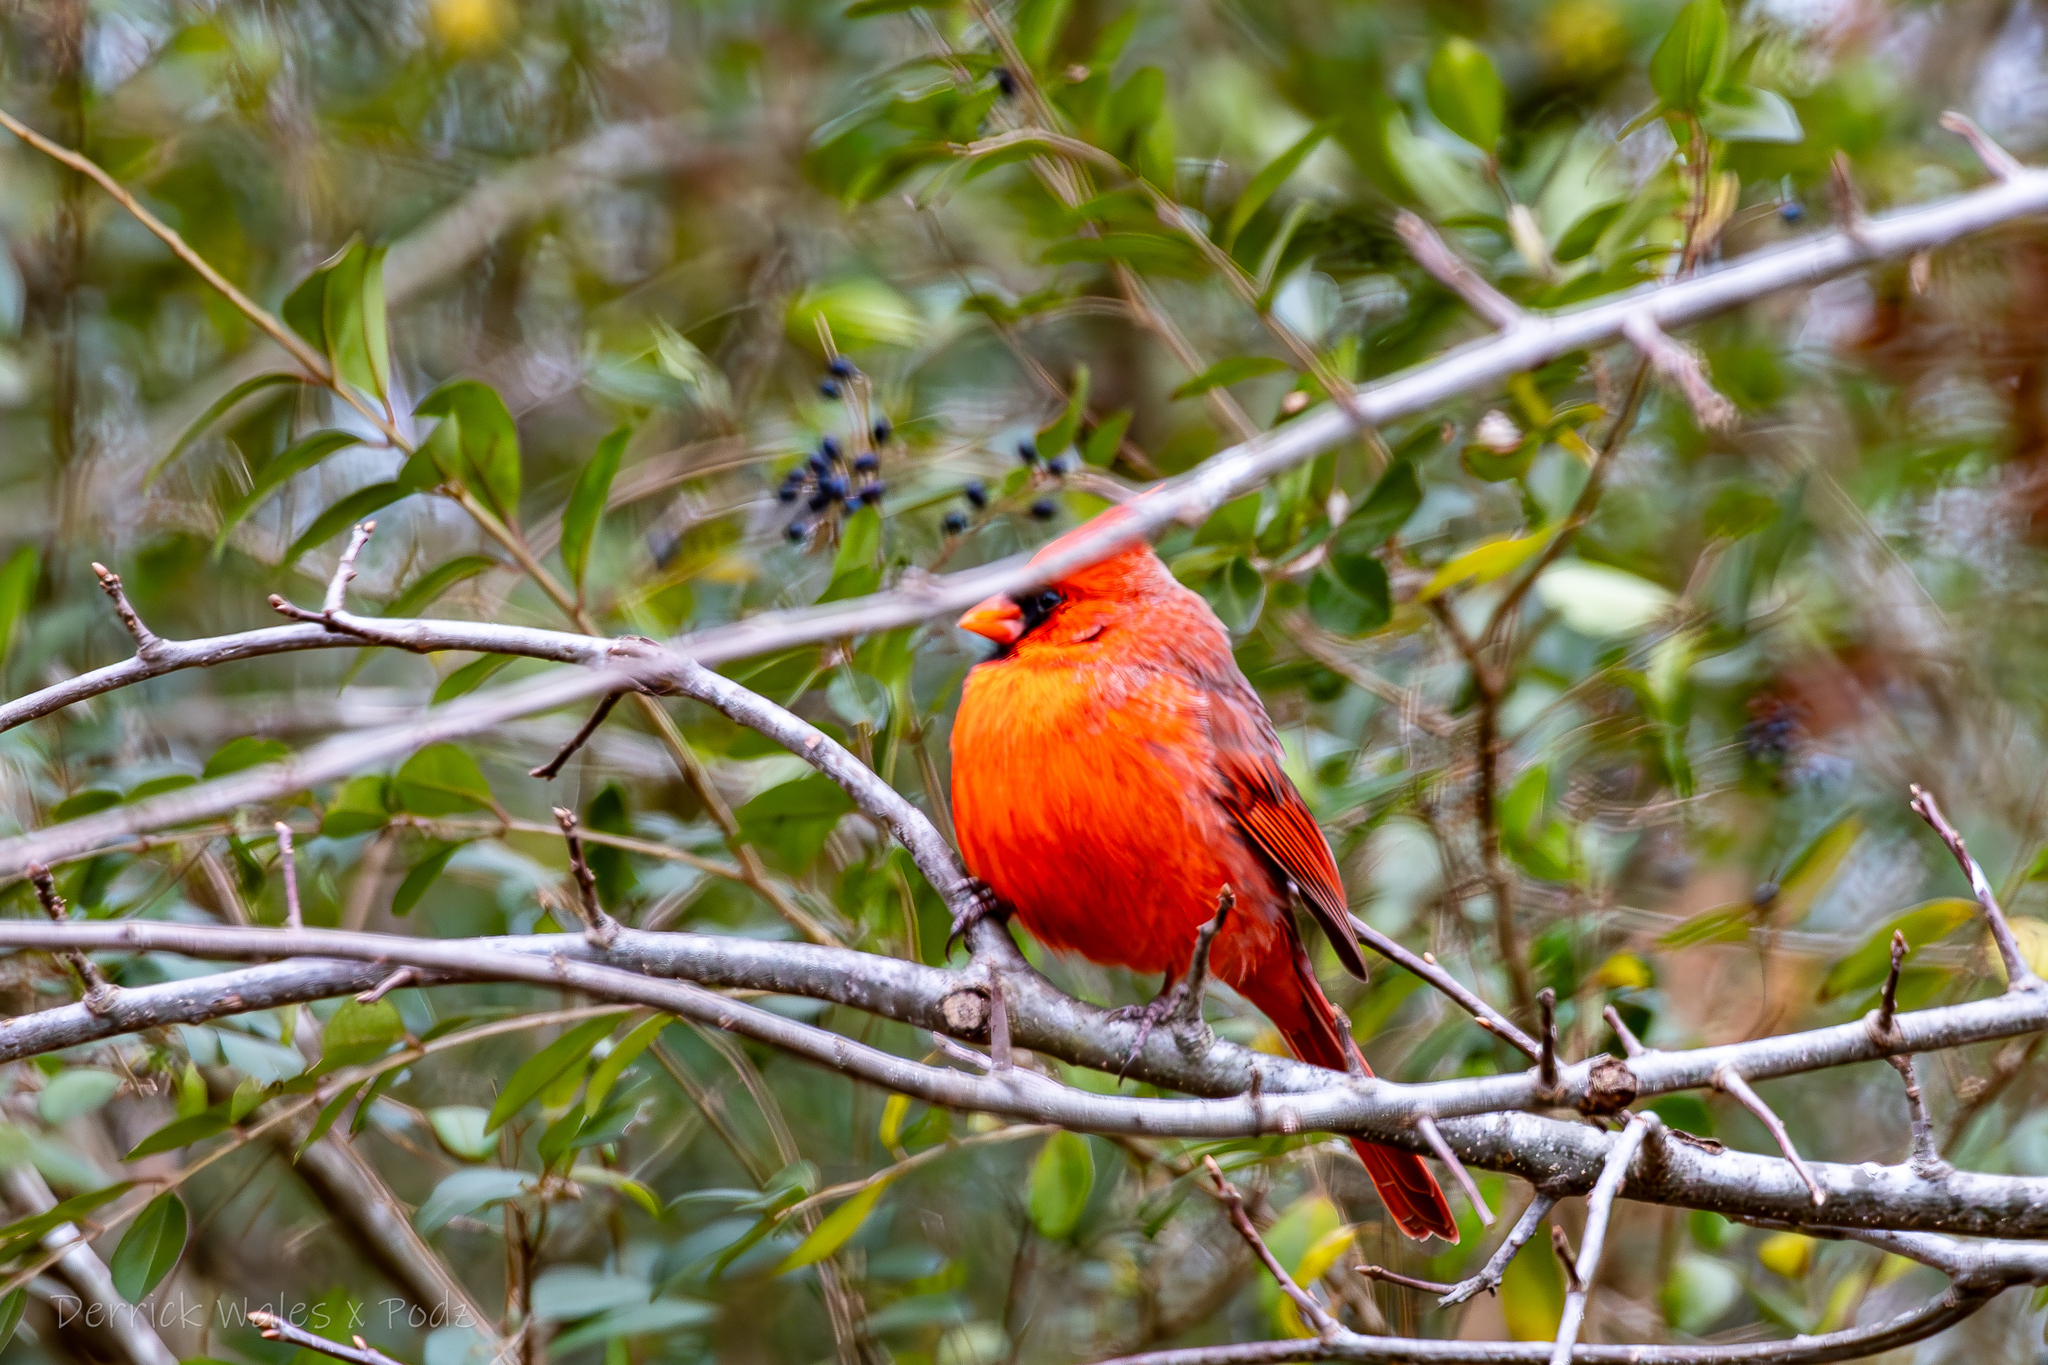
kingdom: Animalia
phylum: Chordata
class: Aves
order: Passeriformes
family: Cardinalidae
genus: Cardinalis
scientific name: Cardinalis cardinalis
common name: Northern cardinal
